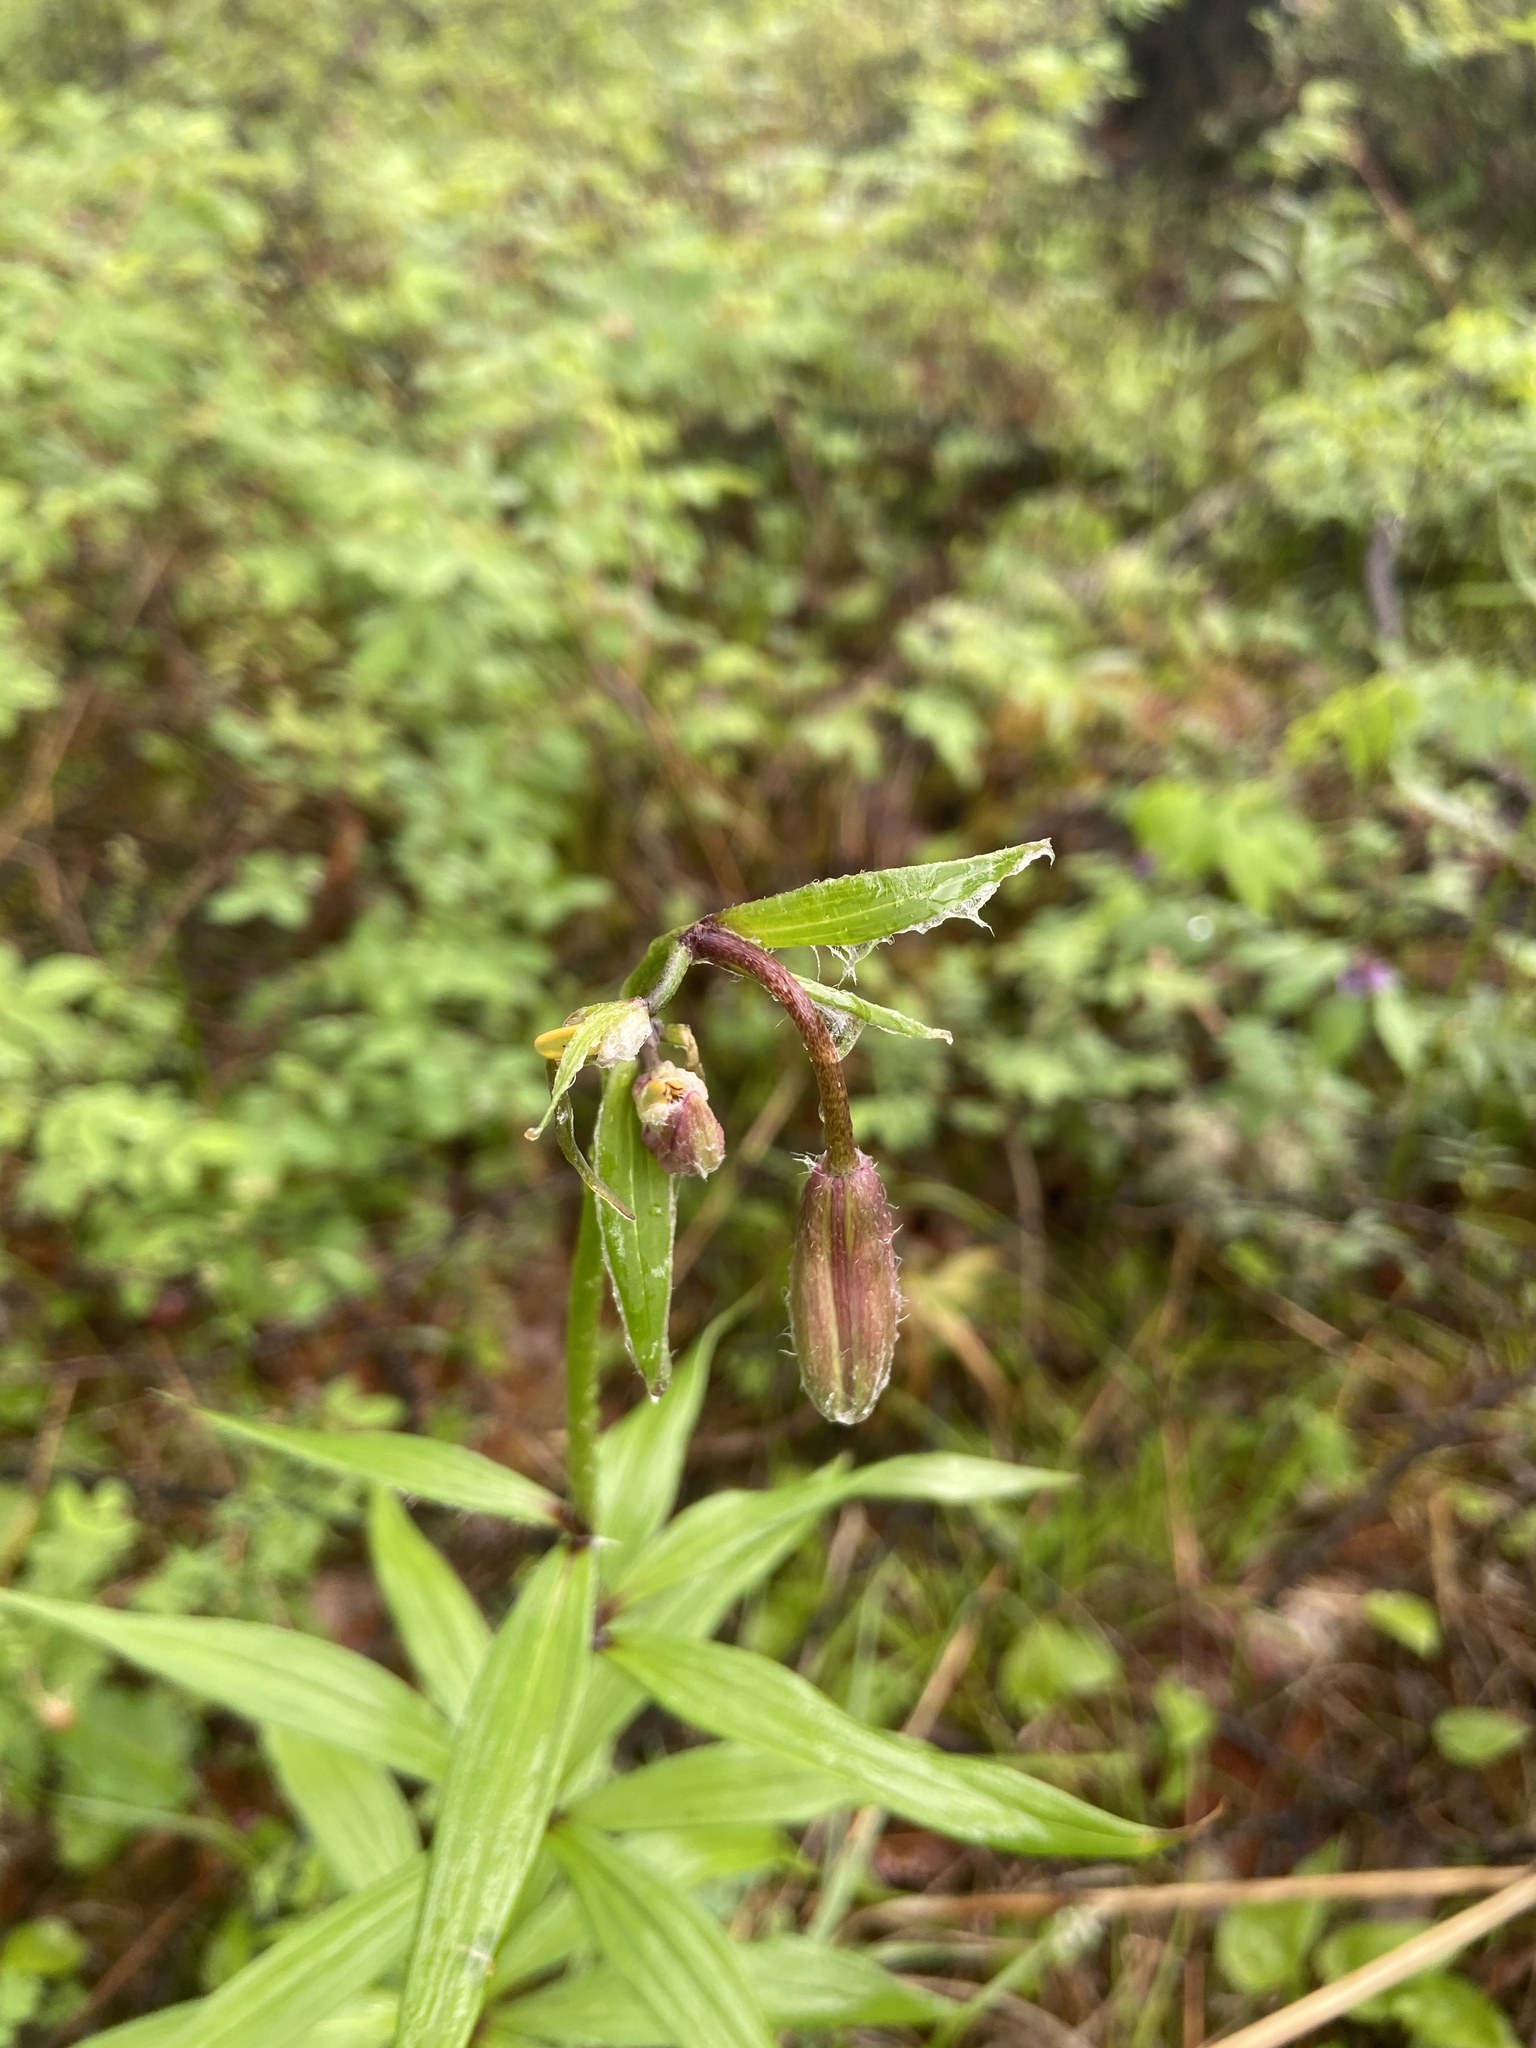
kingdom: Plantae
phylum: Tracheophyta
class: Liliopsida
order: Liliales
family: Liliaceae
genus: Lilium
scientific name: Lilium martagon
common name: Martagon lily
